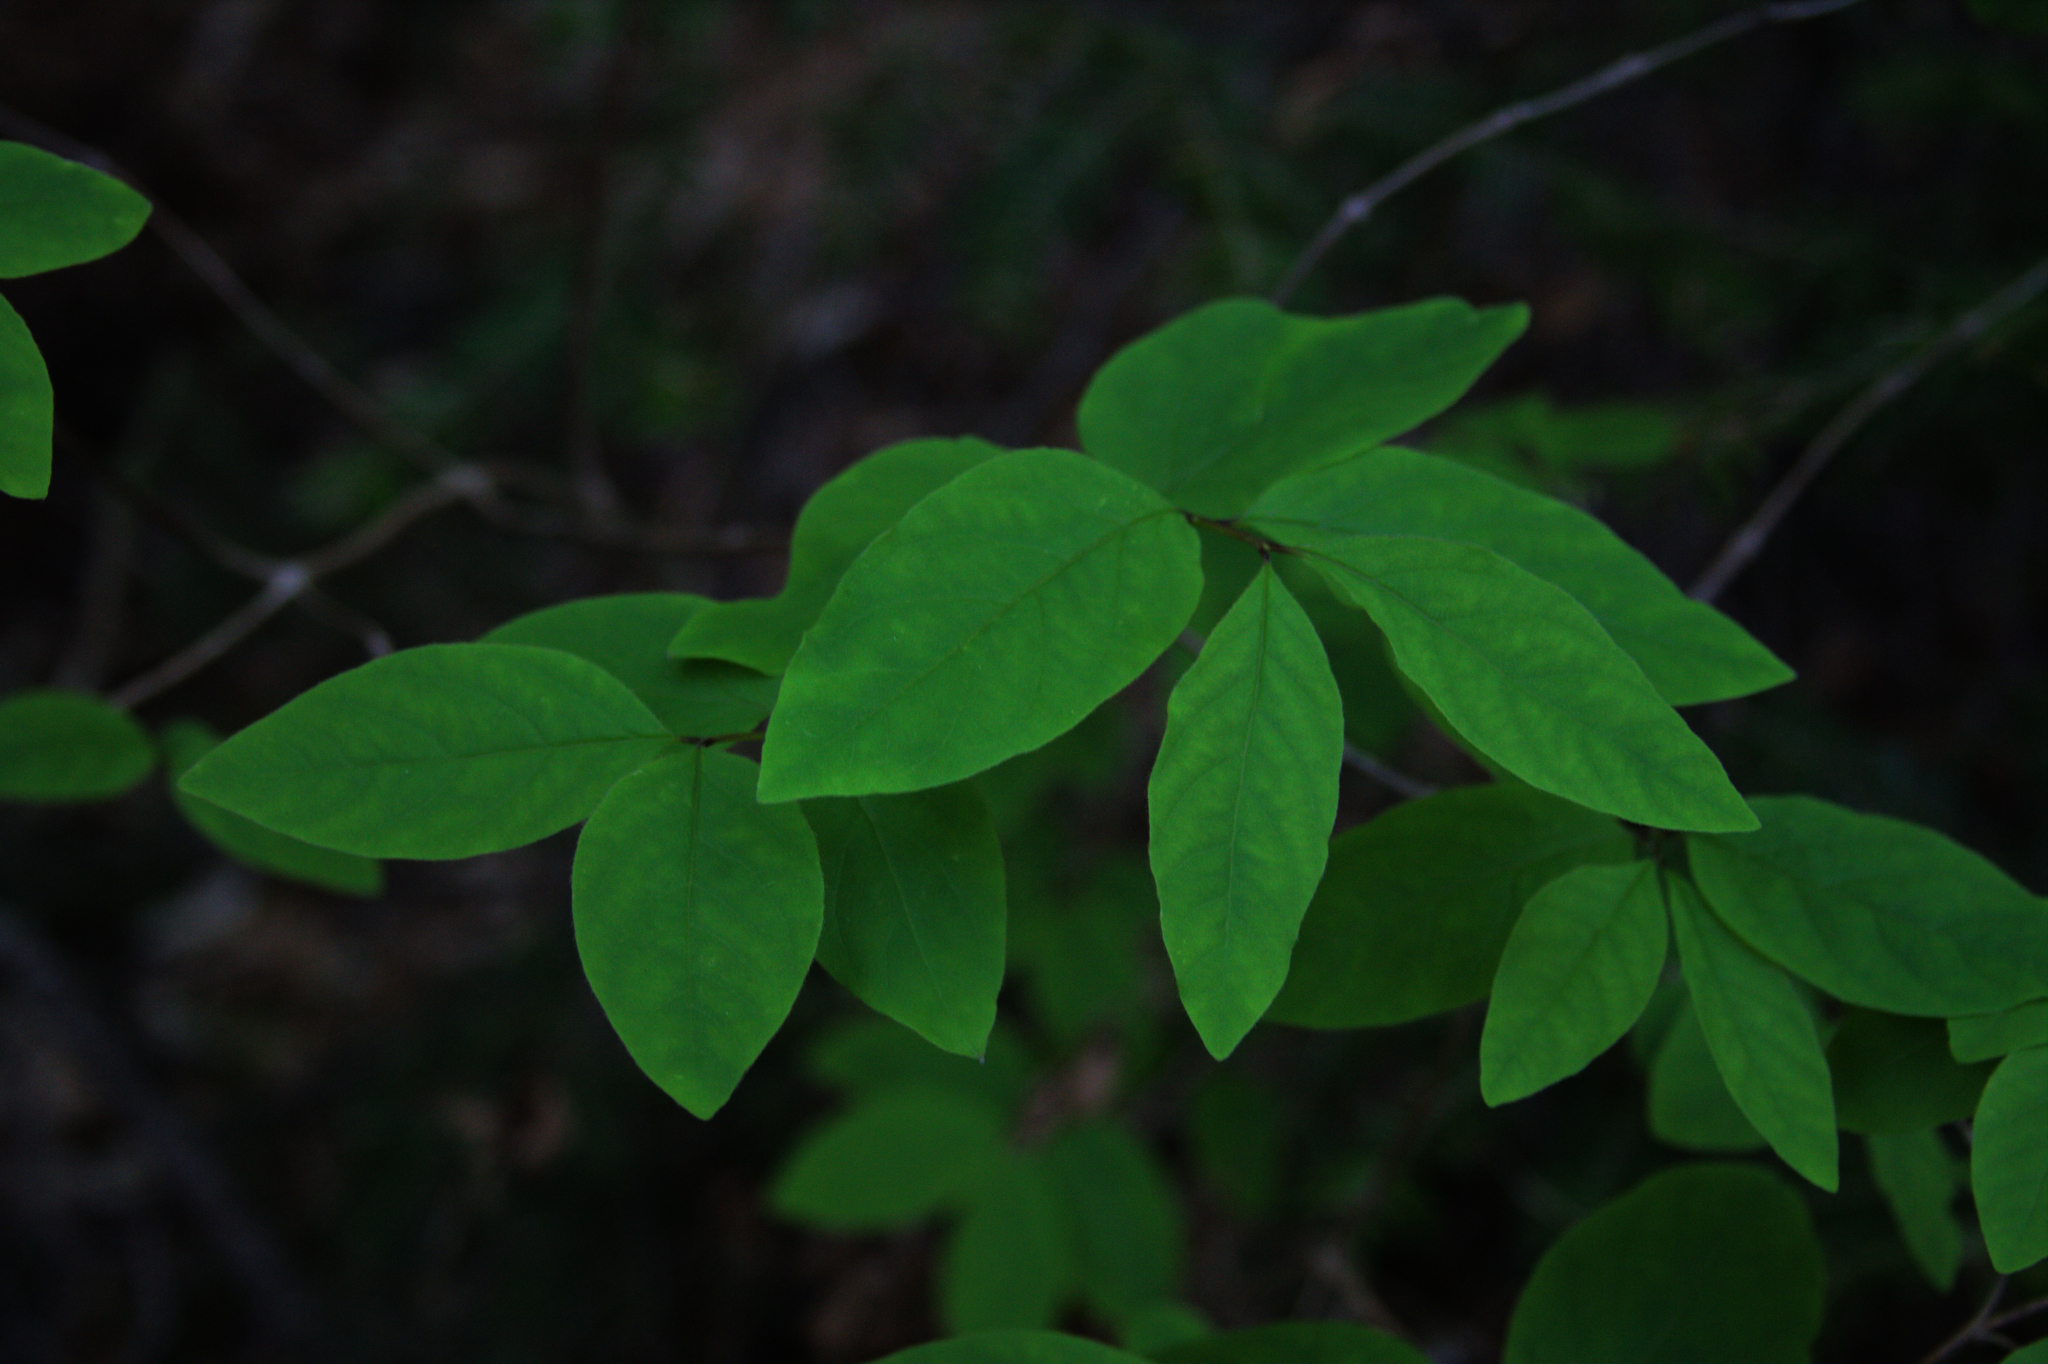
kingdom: Plantae
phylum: Tracheophyta
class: Magnoliopsida
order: Dipsacales
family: Caprifoliaceae
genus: Lonicera
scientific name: Lonicera canadensis
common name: American fly-honeysuckle
